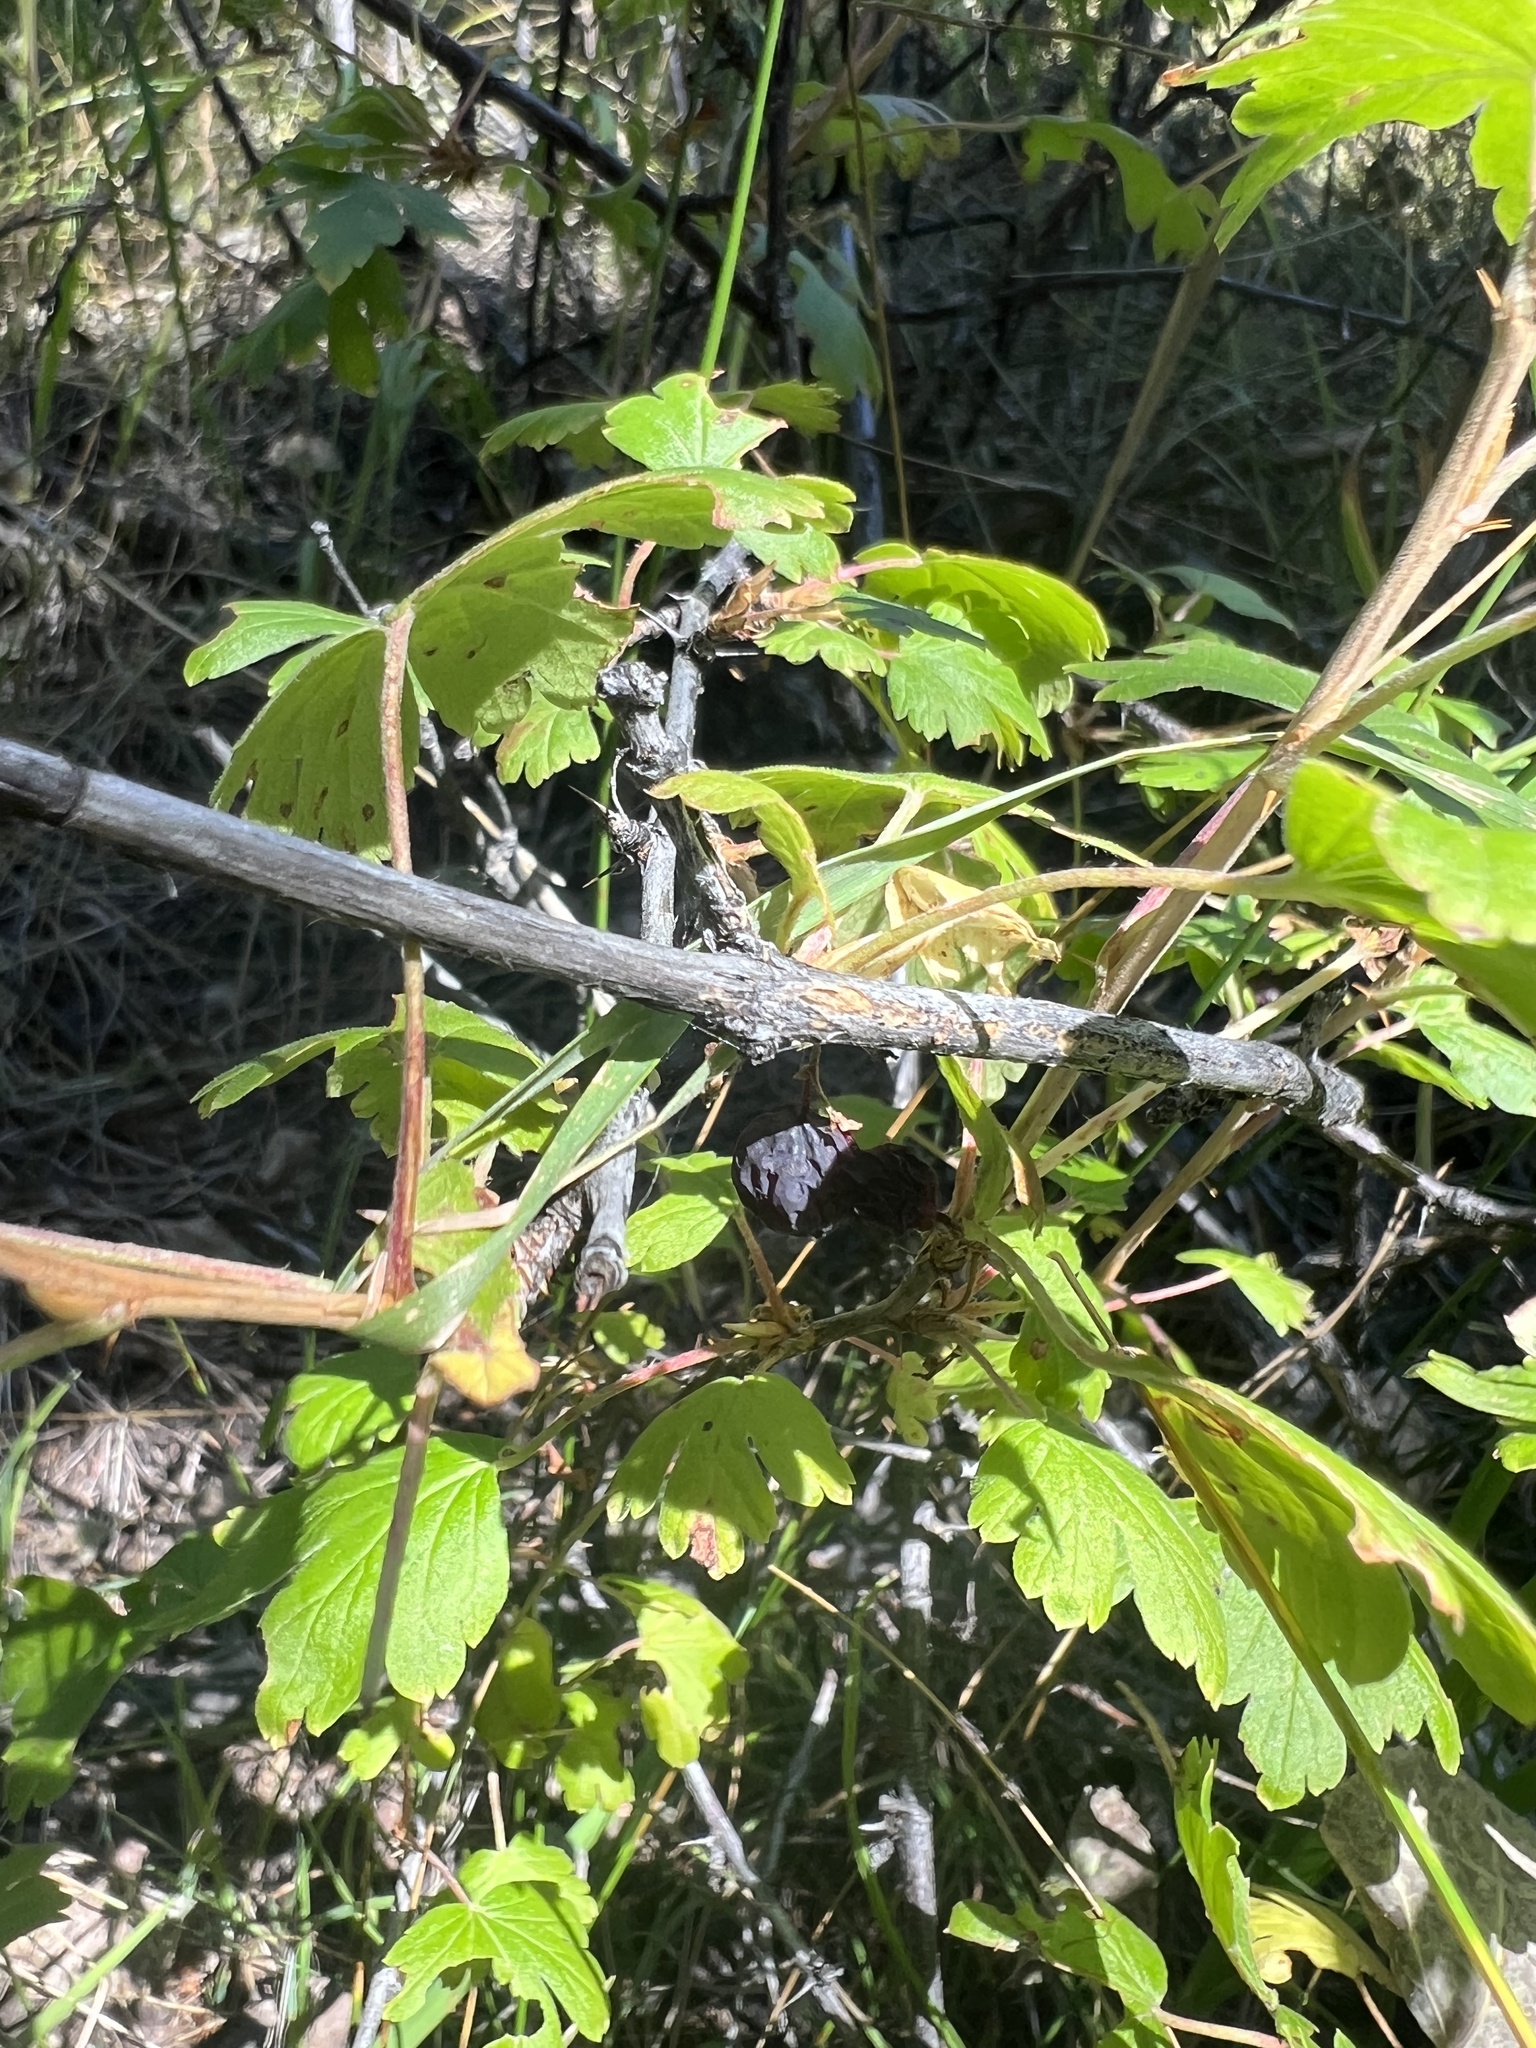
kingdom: Plantae
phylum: Tracheophyta
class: Magnoliopsida
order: Saxifragales
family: Grossulariaceae
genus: Ribes
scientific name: Ribes inerme
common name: White-stem gooseberry
